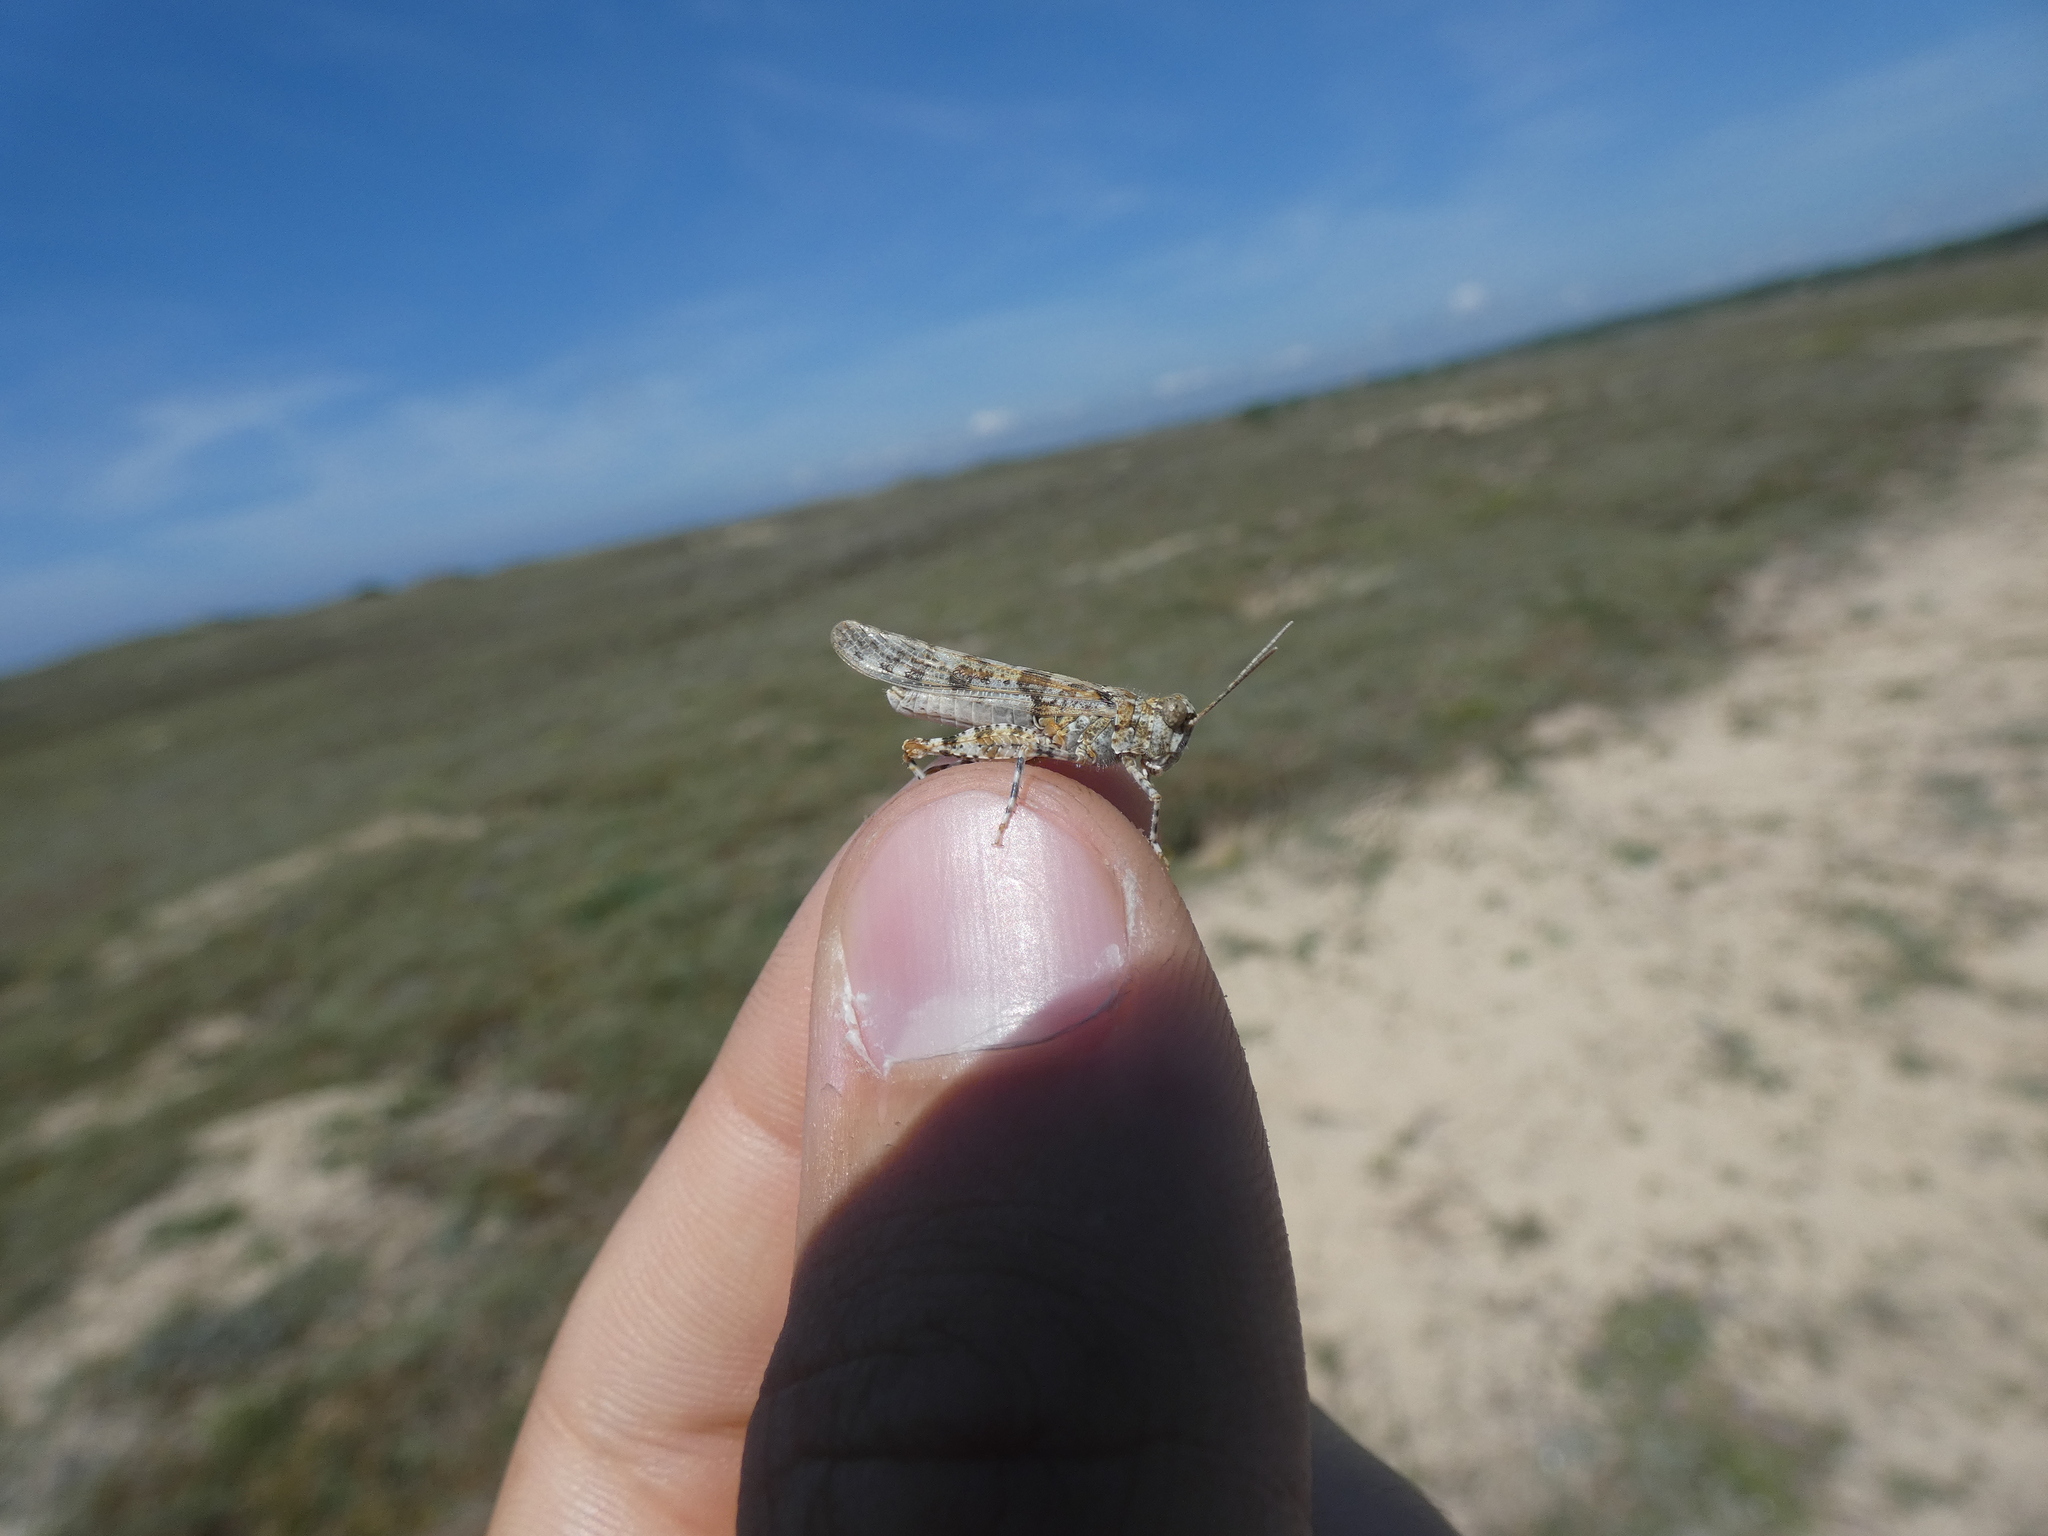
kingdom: Animalia
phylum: Arthropoda
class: Insecta
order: Orthoptera
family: Acrididae
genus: Sphingonotus
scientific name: Sphingonotus caerulans
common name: Blue-winged locust
